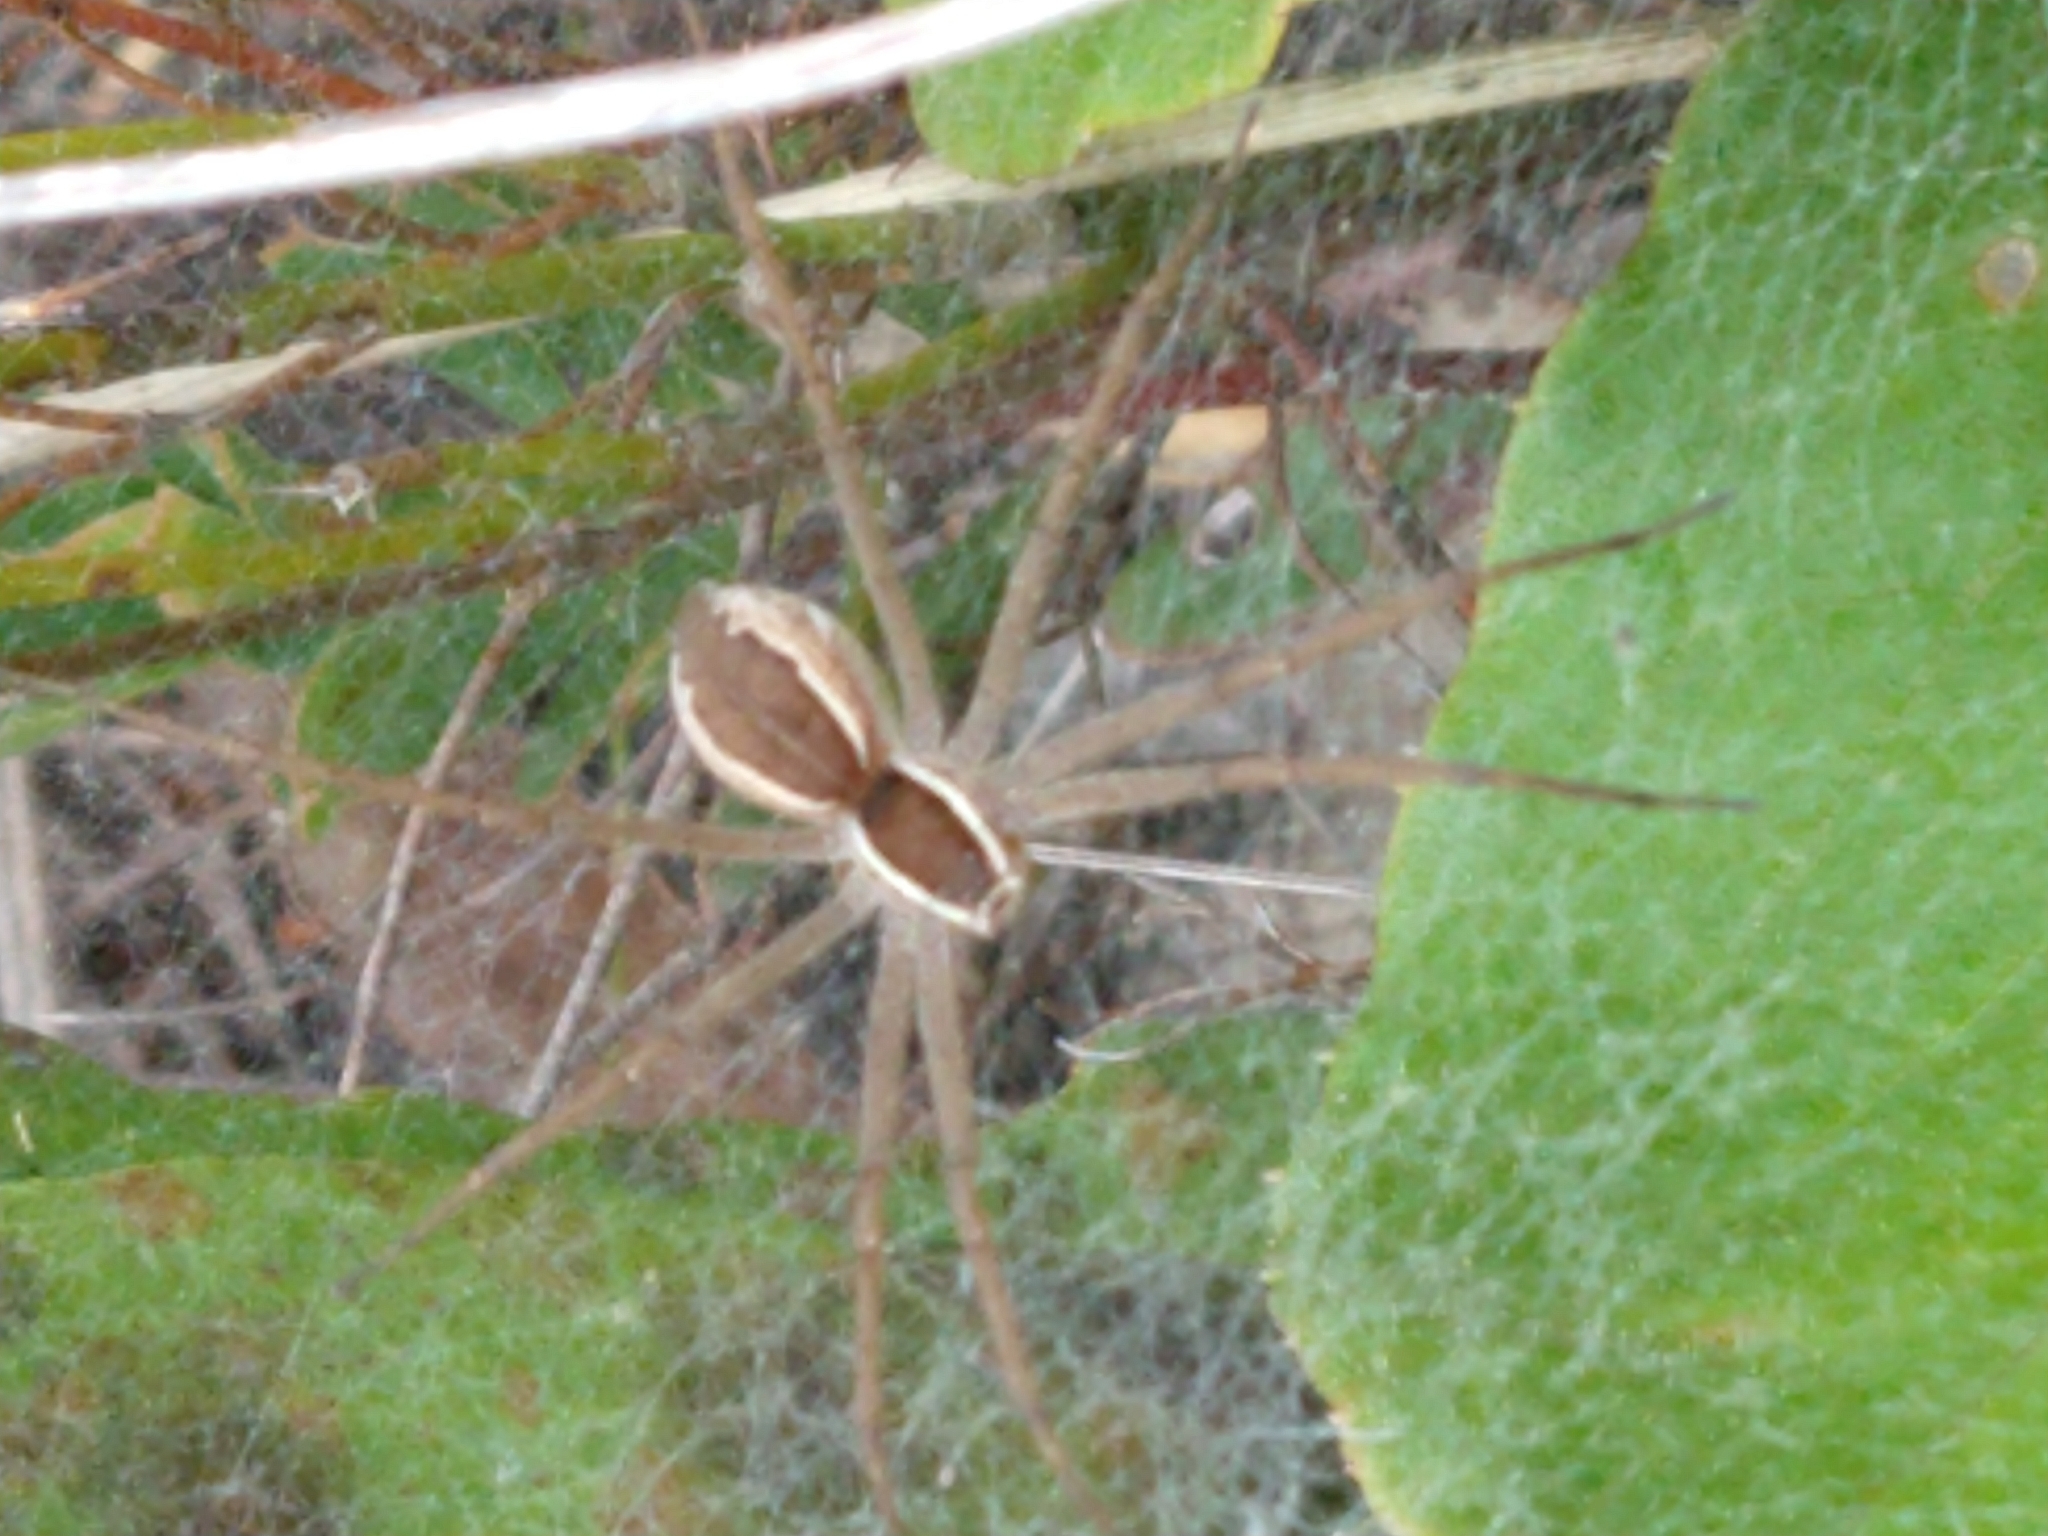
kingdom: Animalia
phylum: Arthropoda
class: Arachnida
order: Araneae
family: Pisauridae
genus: Euprosthenopsis
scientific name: Euprosthenopsis pulchella
